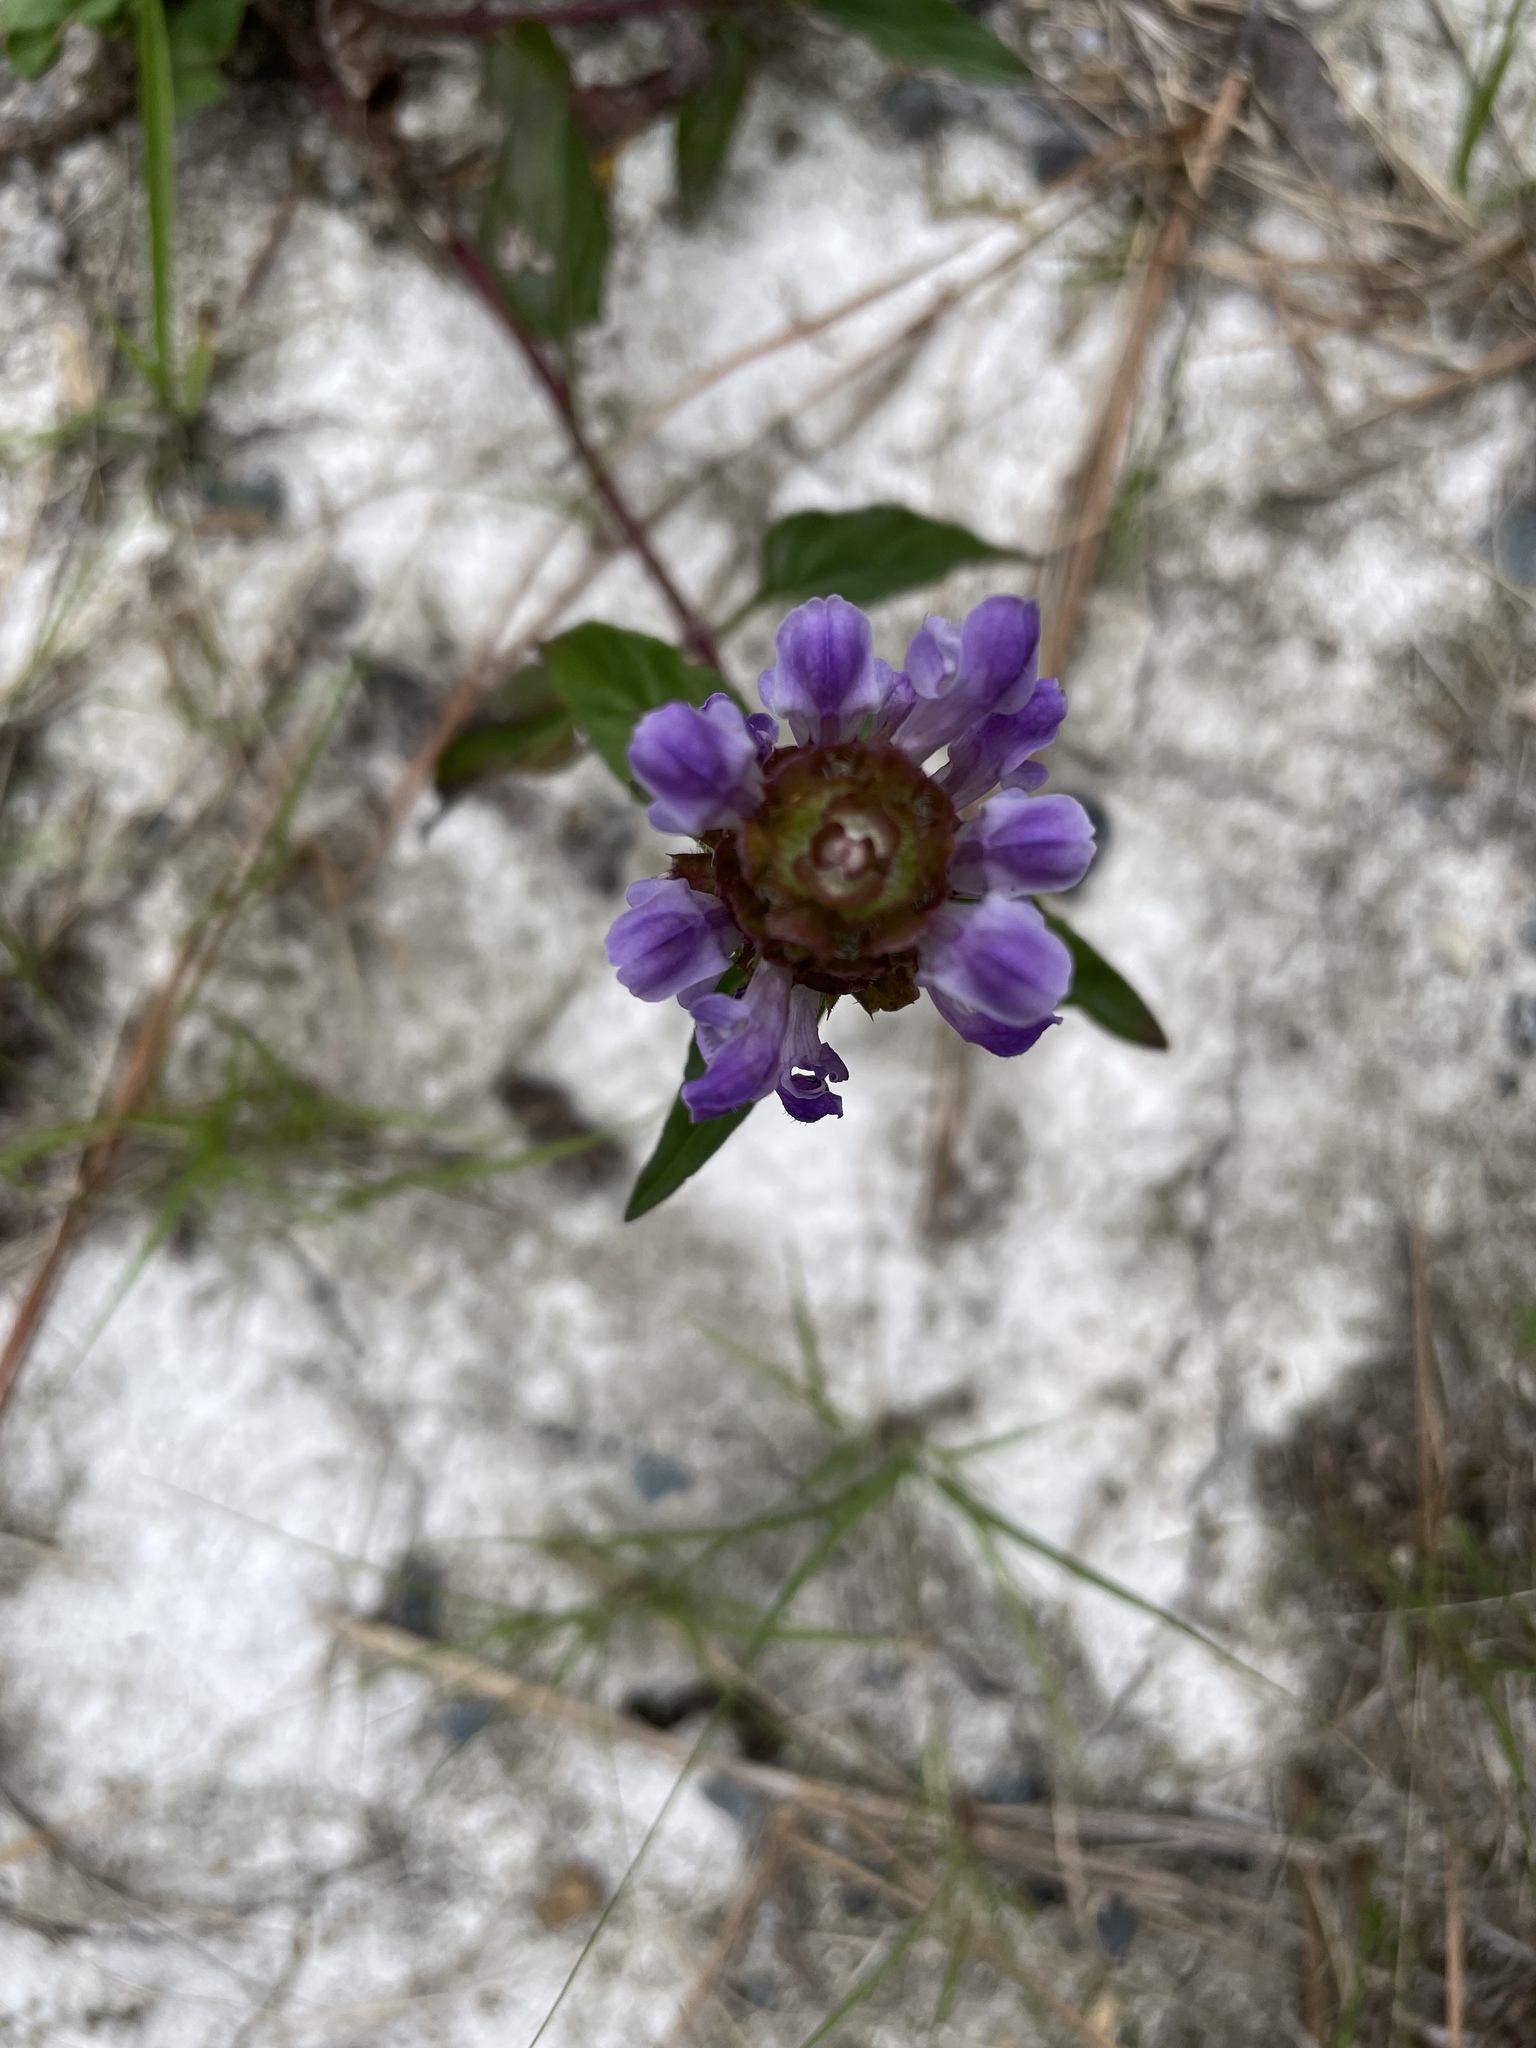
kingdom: Plantae
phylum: Tracheophyta
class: Magnoliopsida
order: Lamiales
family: Lamiaceae
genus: Prunella
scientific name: Prunella vulgaris
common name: Heal-all
